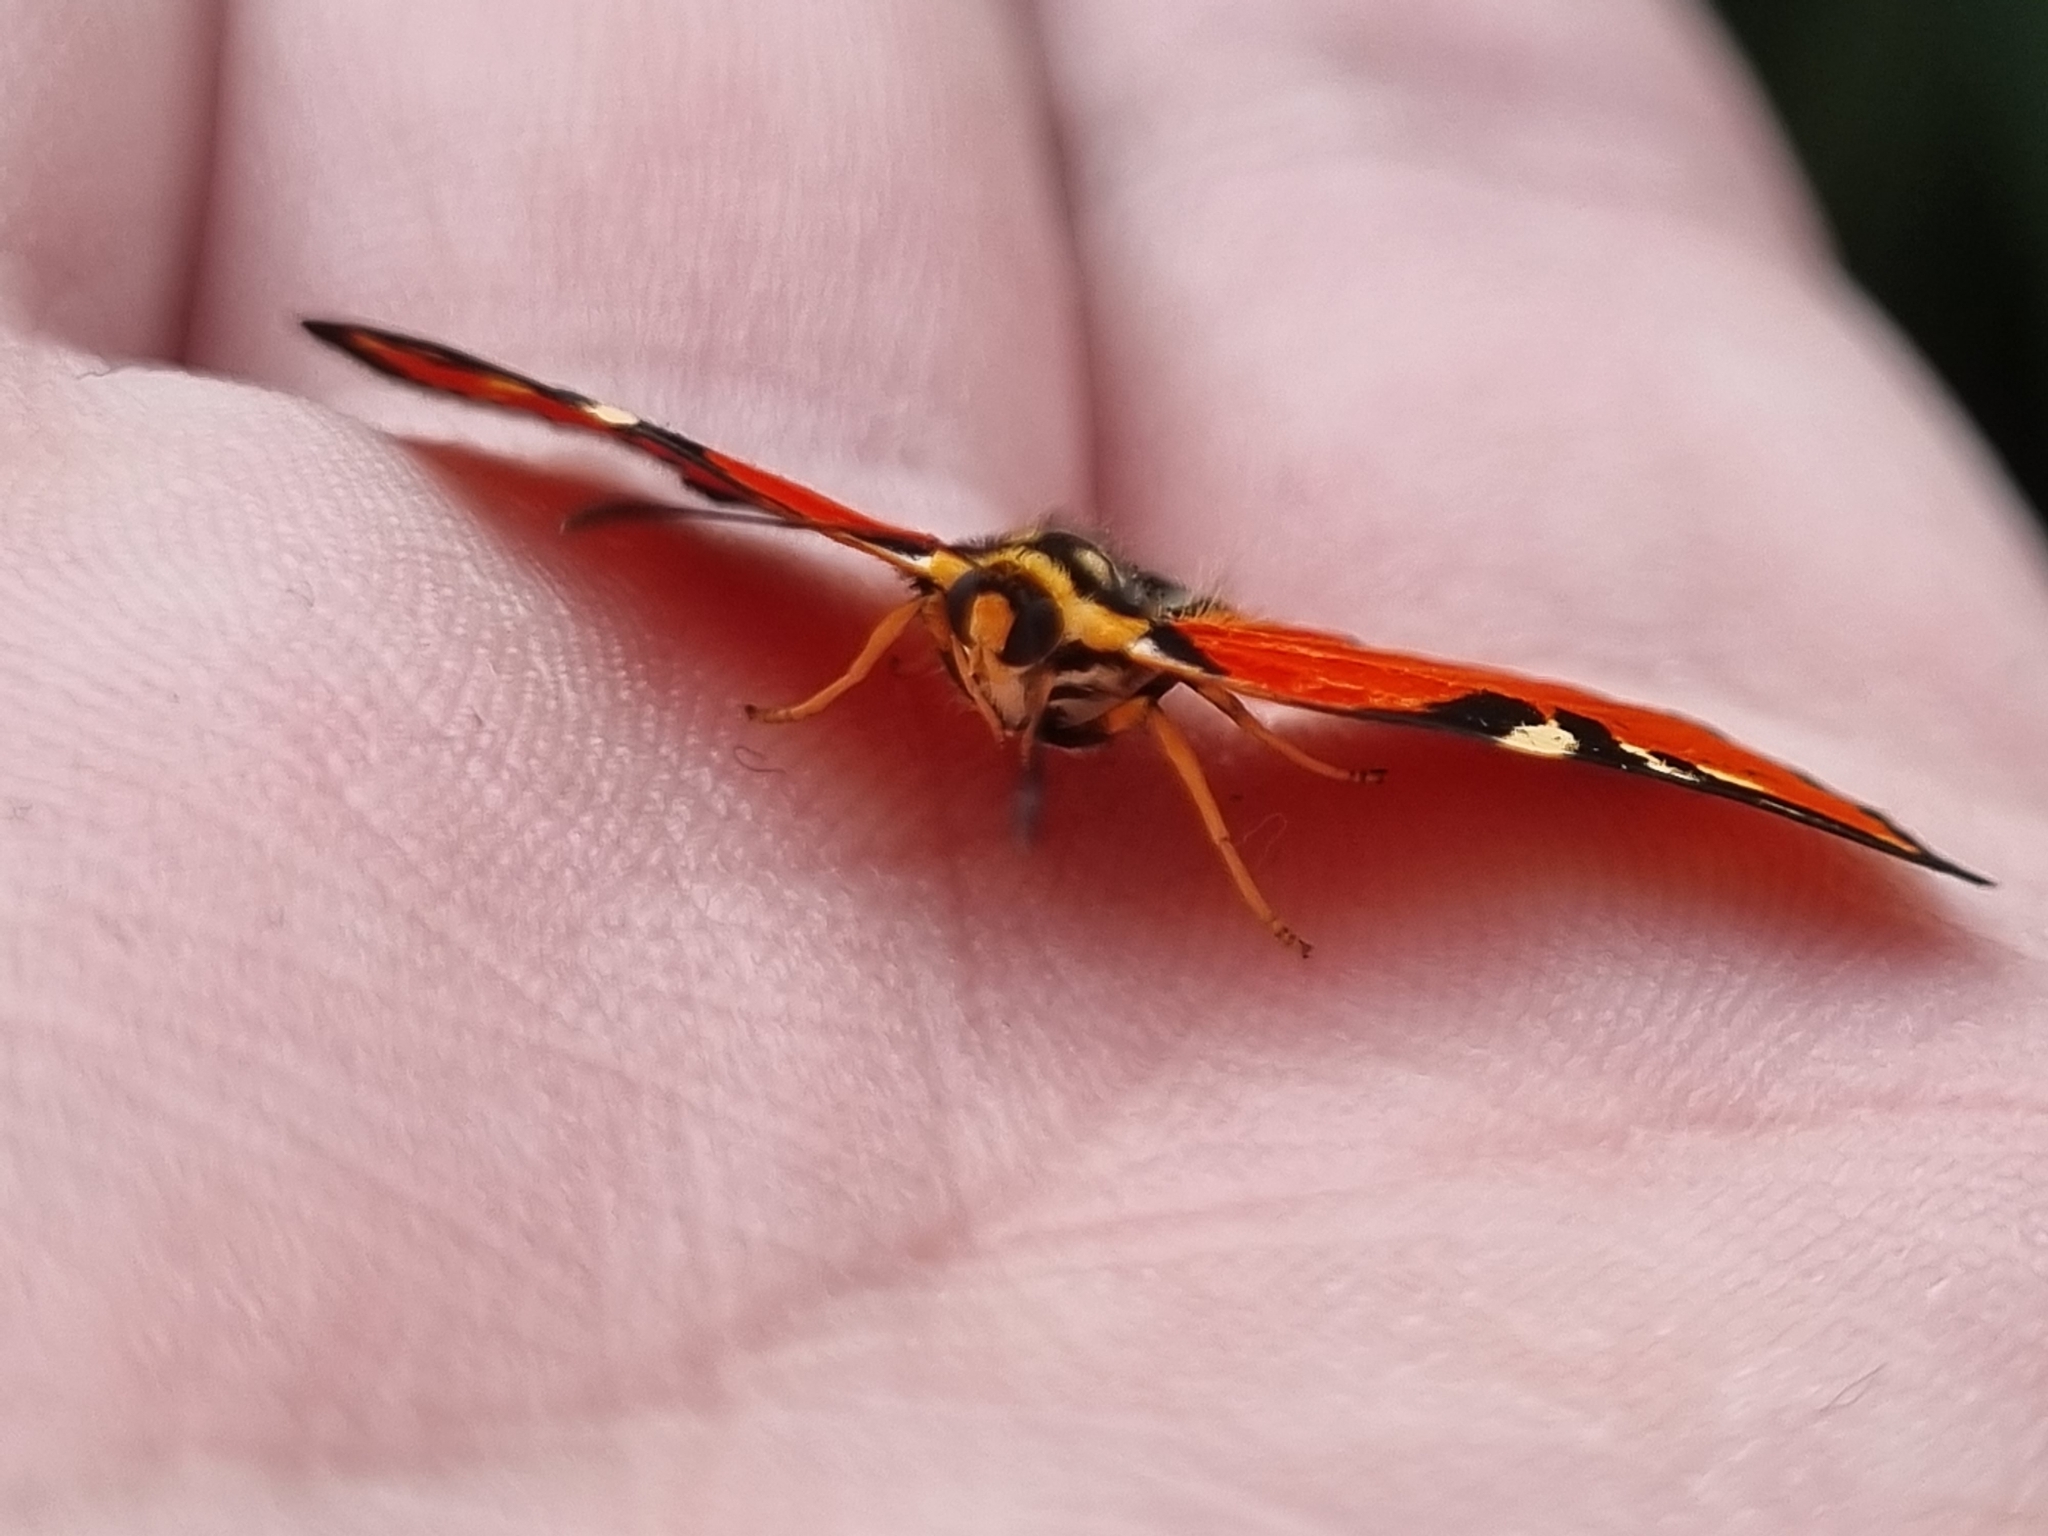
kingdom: Animalia
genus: Symmachia
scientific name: Symmachia menetes
